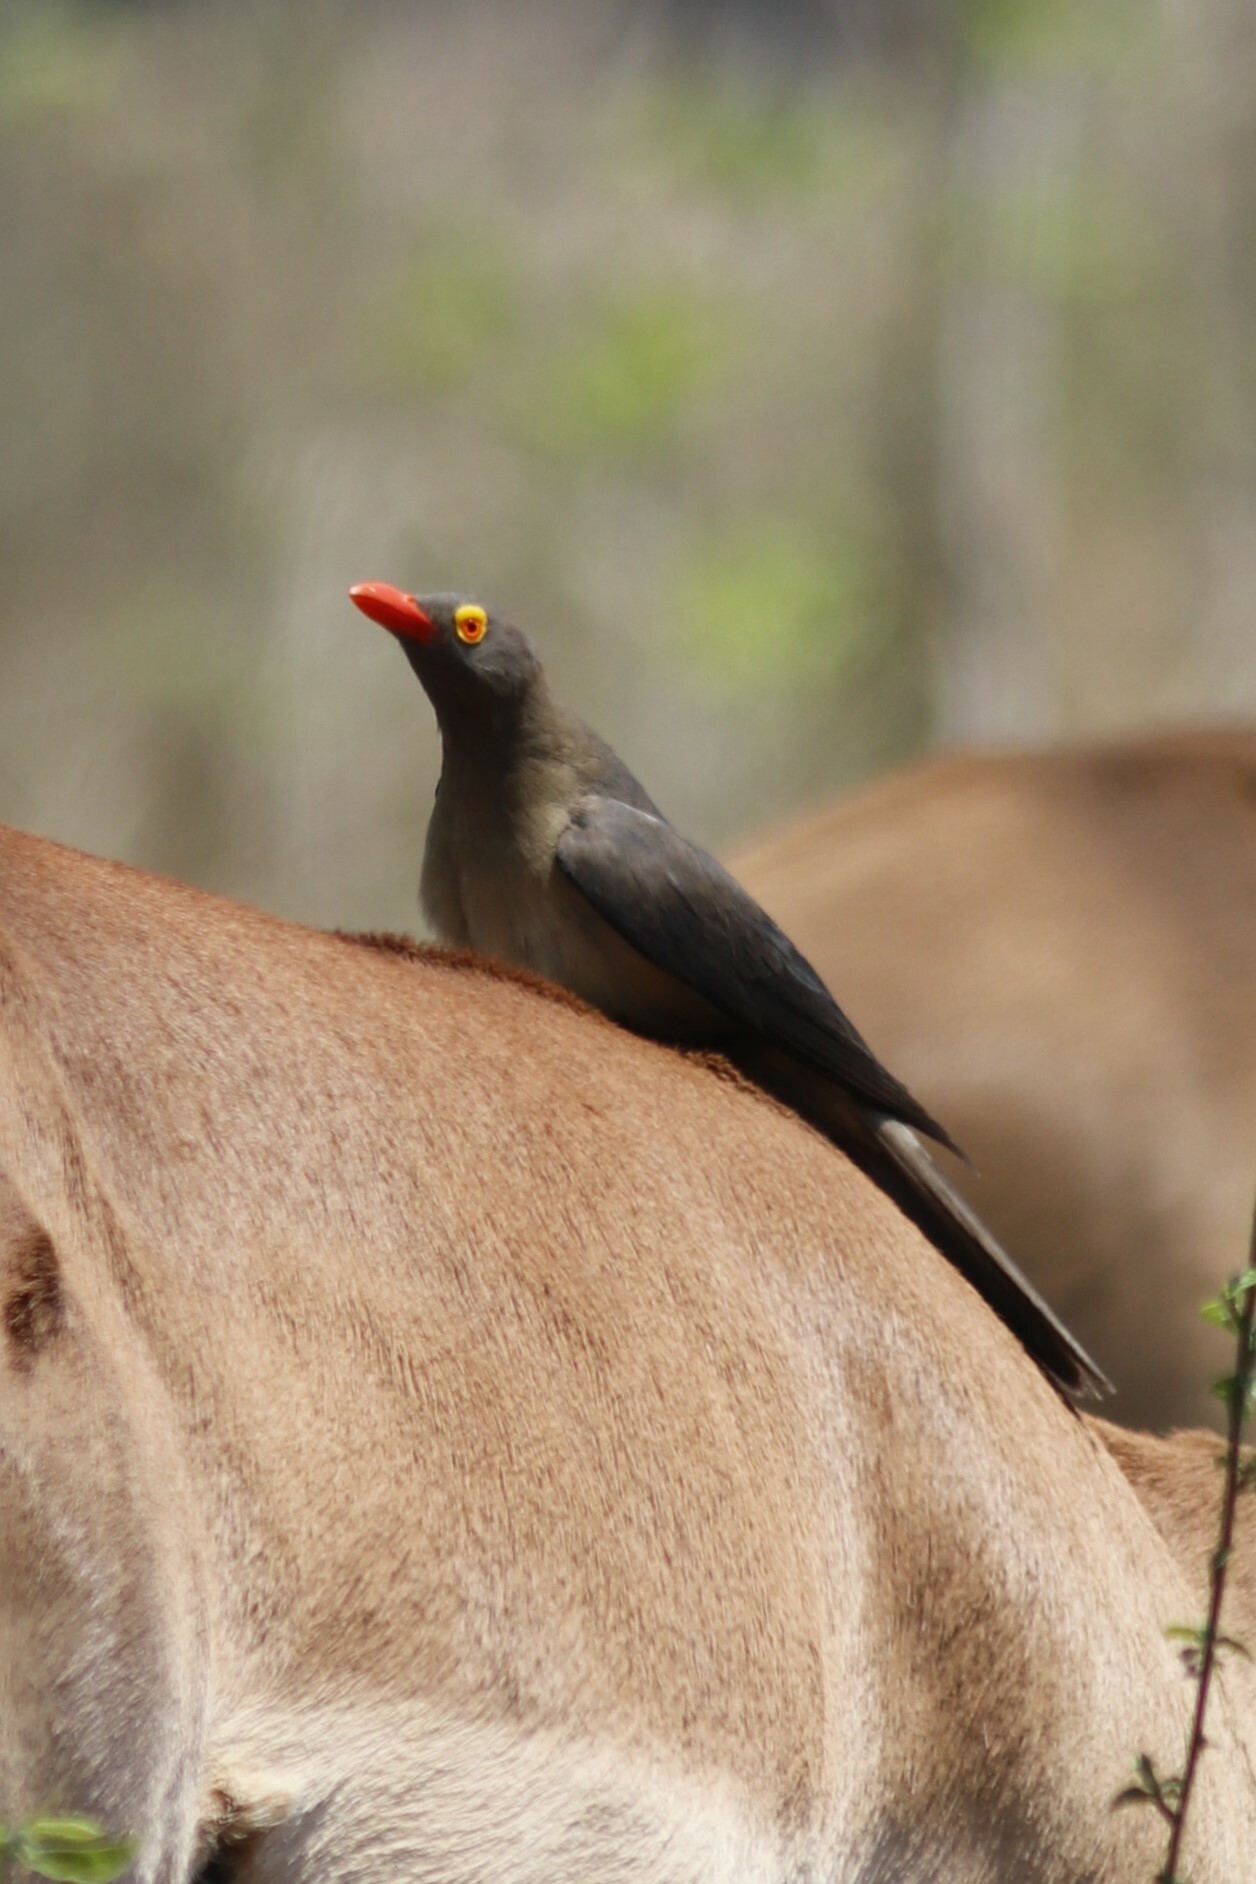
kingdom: Animalia
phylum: Chordata
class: Aves
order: Passeriformes
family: Buphagidae
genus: Buphagus
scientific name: Buphagus erythrorhynchus
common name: Red-billed oxpecker
